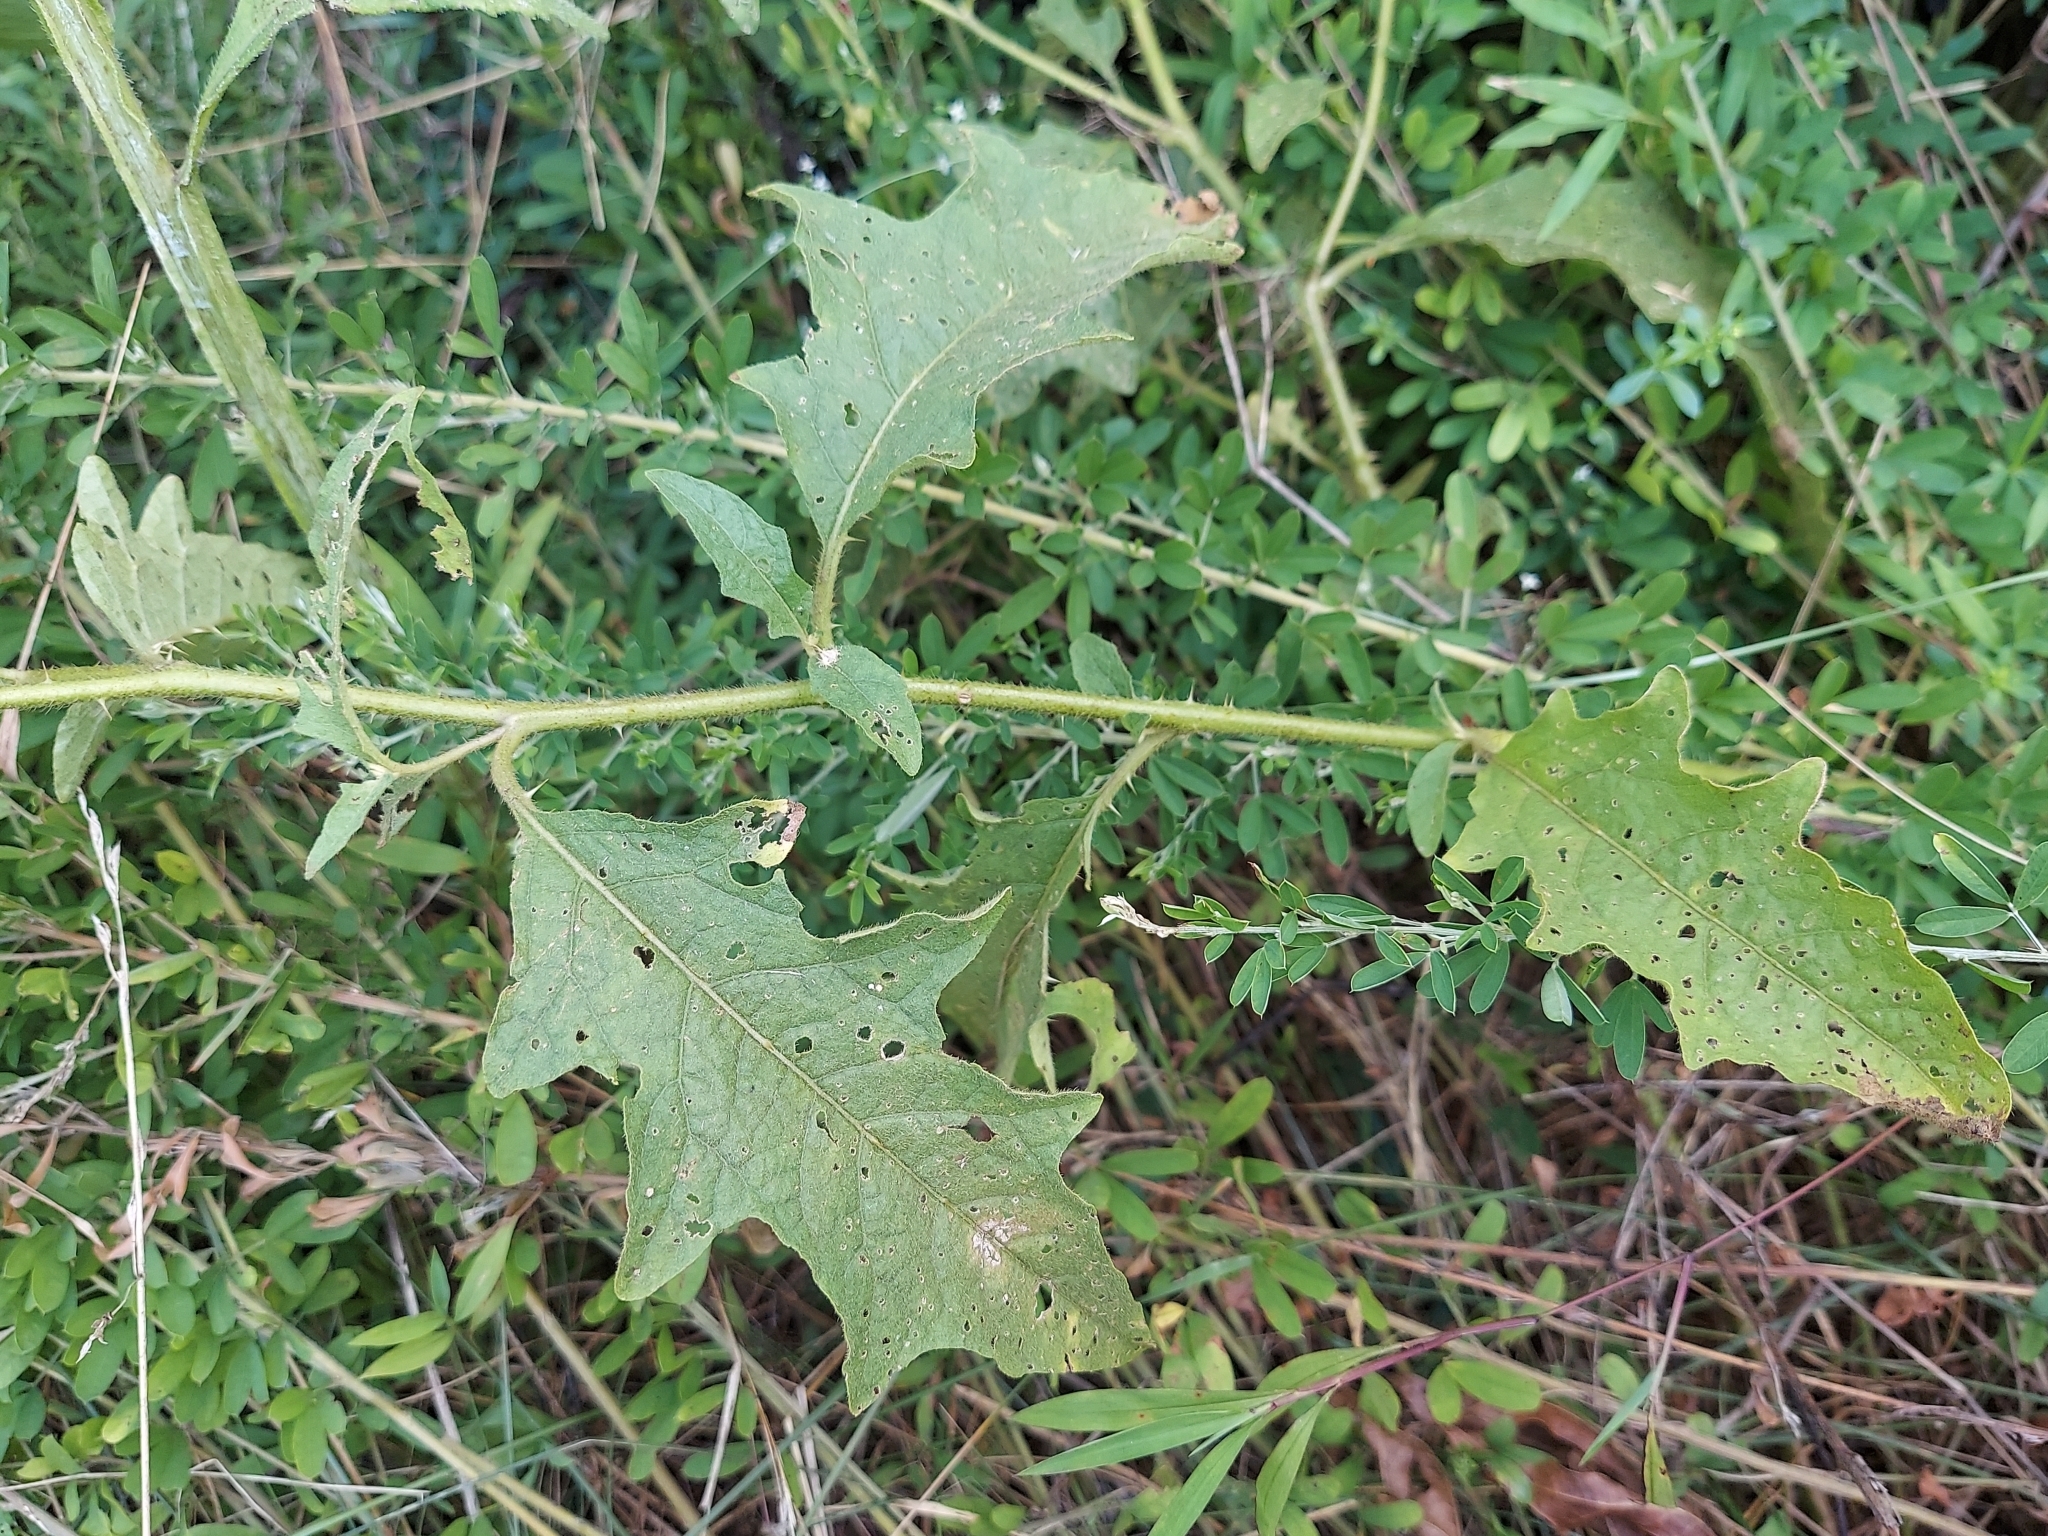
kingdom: Plantae
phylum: Tracheophyta
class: Magnoliopsida
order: Solanales
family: Solanaceae
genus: Solanum
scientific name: Solanum carolinense
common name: Horse-nettle
